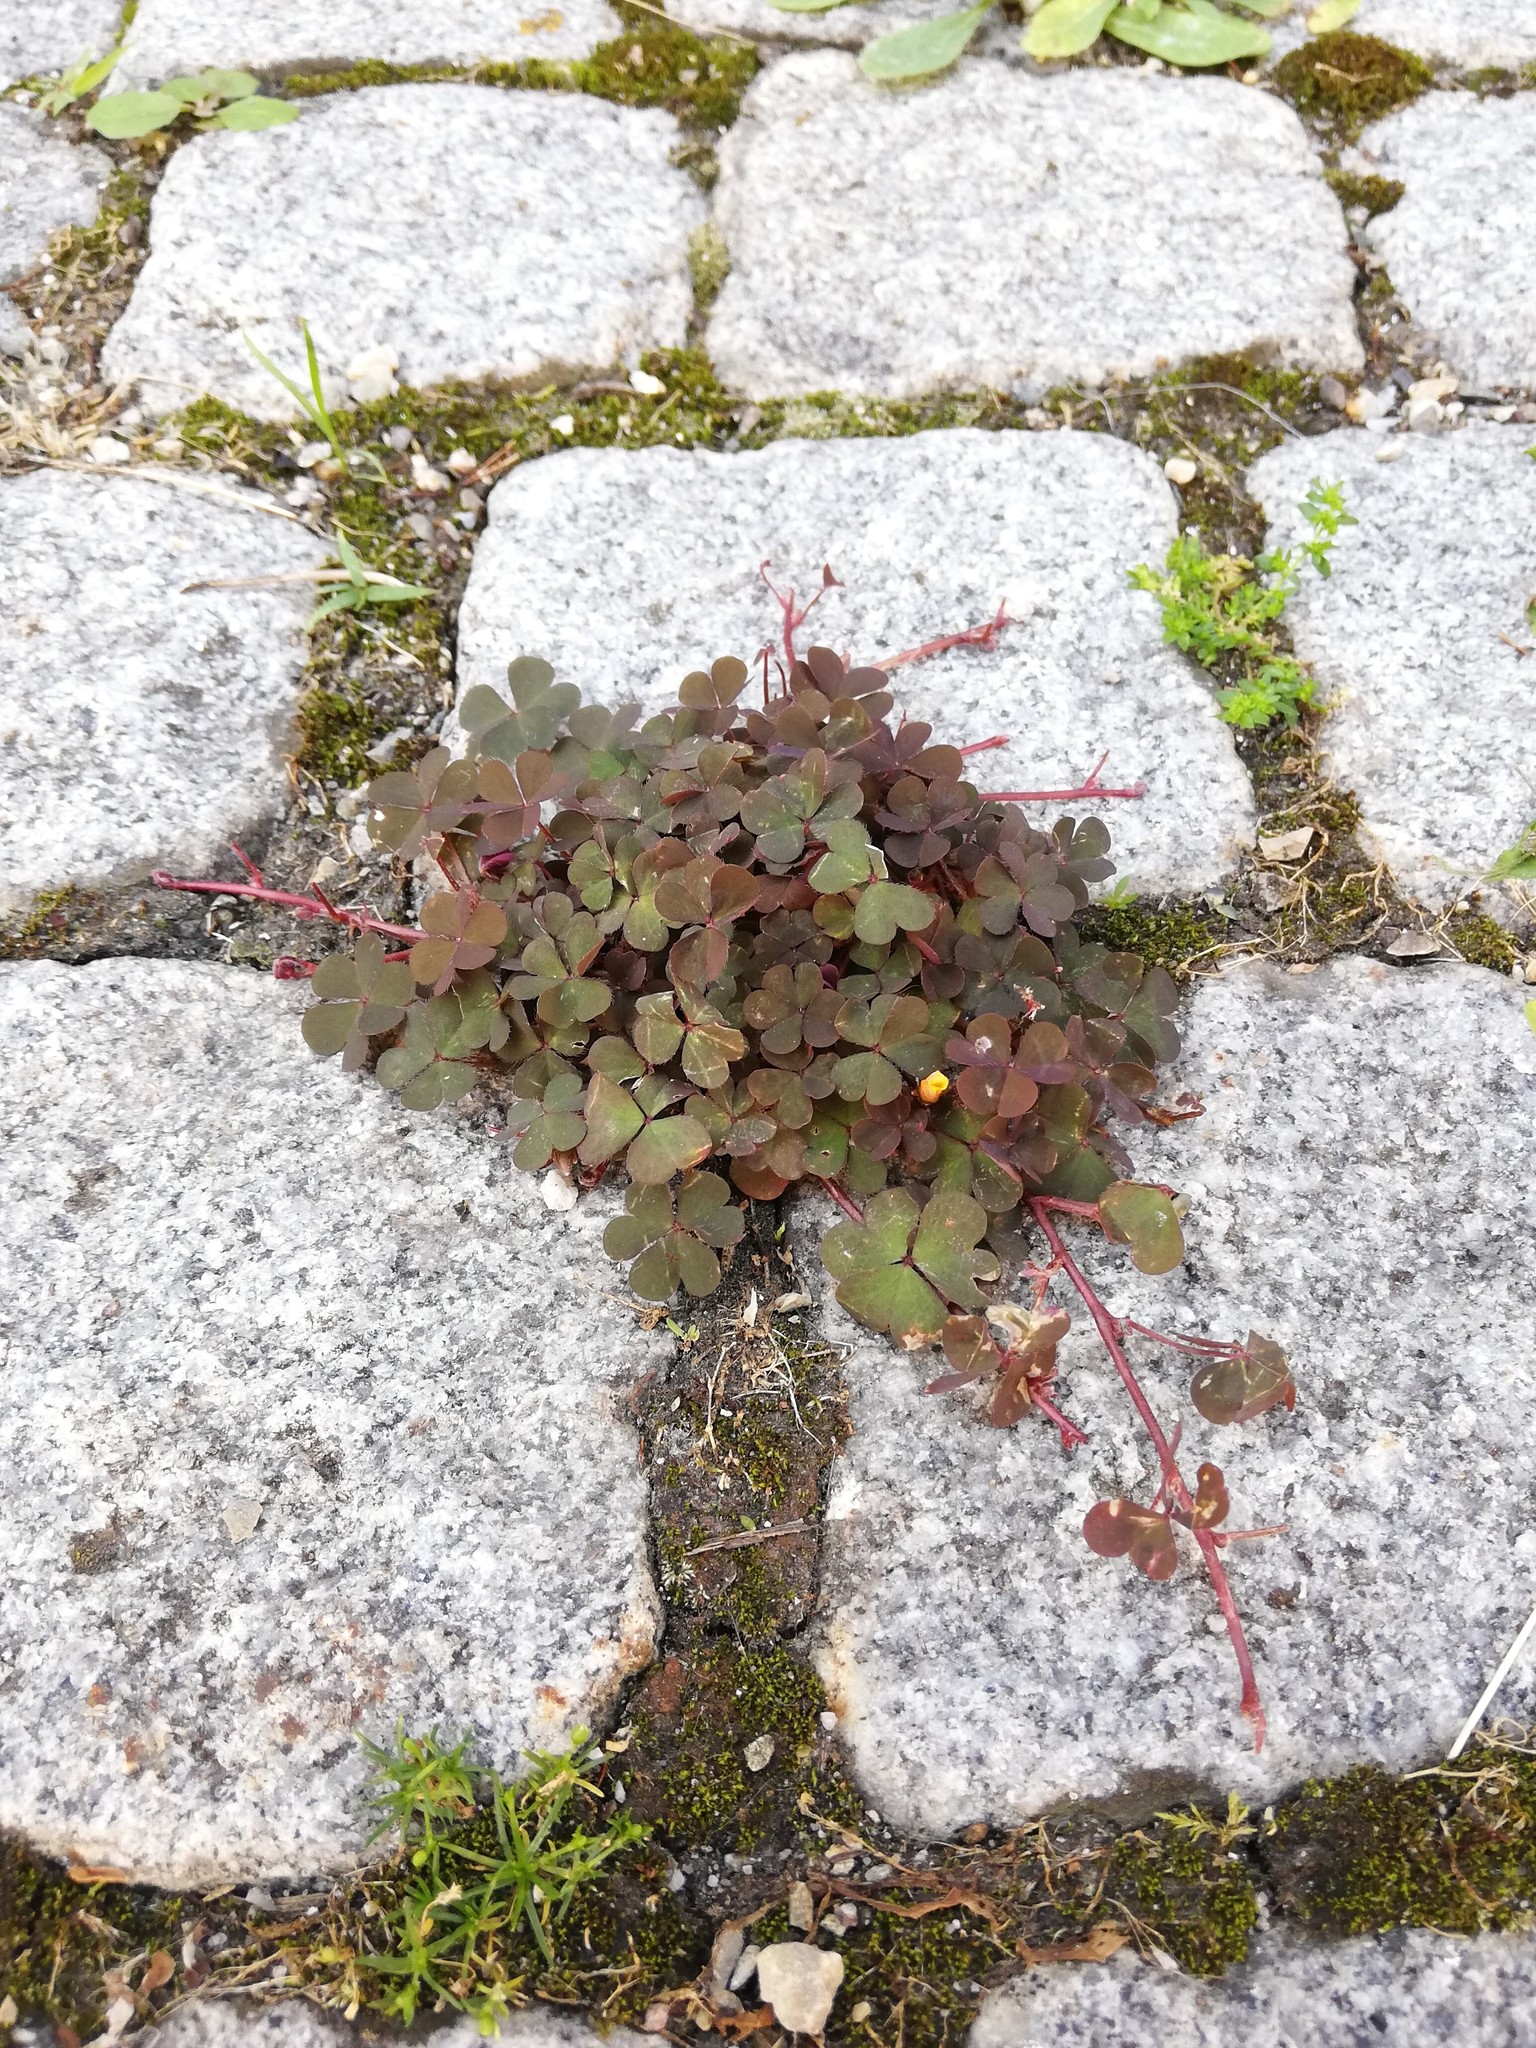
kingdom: Plantae
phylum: Tracheophyta
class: Magnoliopsida
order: Oxalidales
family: Oxalidaceae
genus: Oxalis
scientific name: Oxalis corniculata
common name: Procumbent yellow-sorrel
